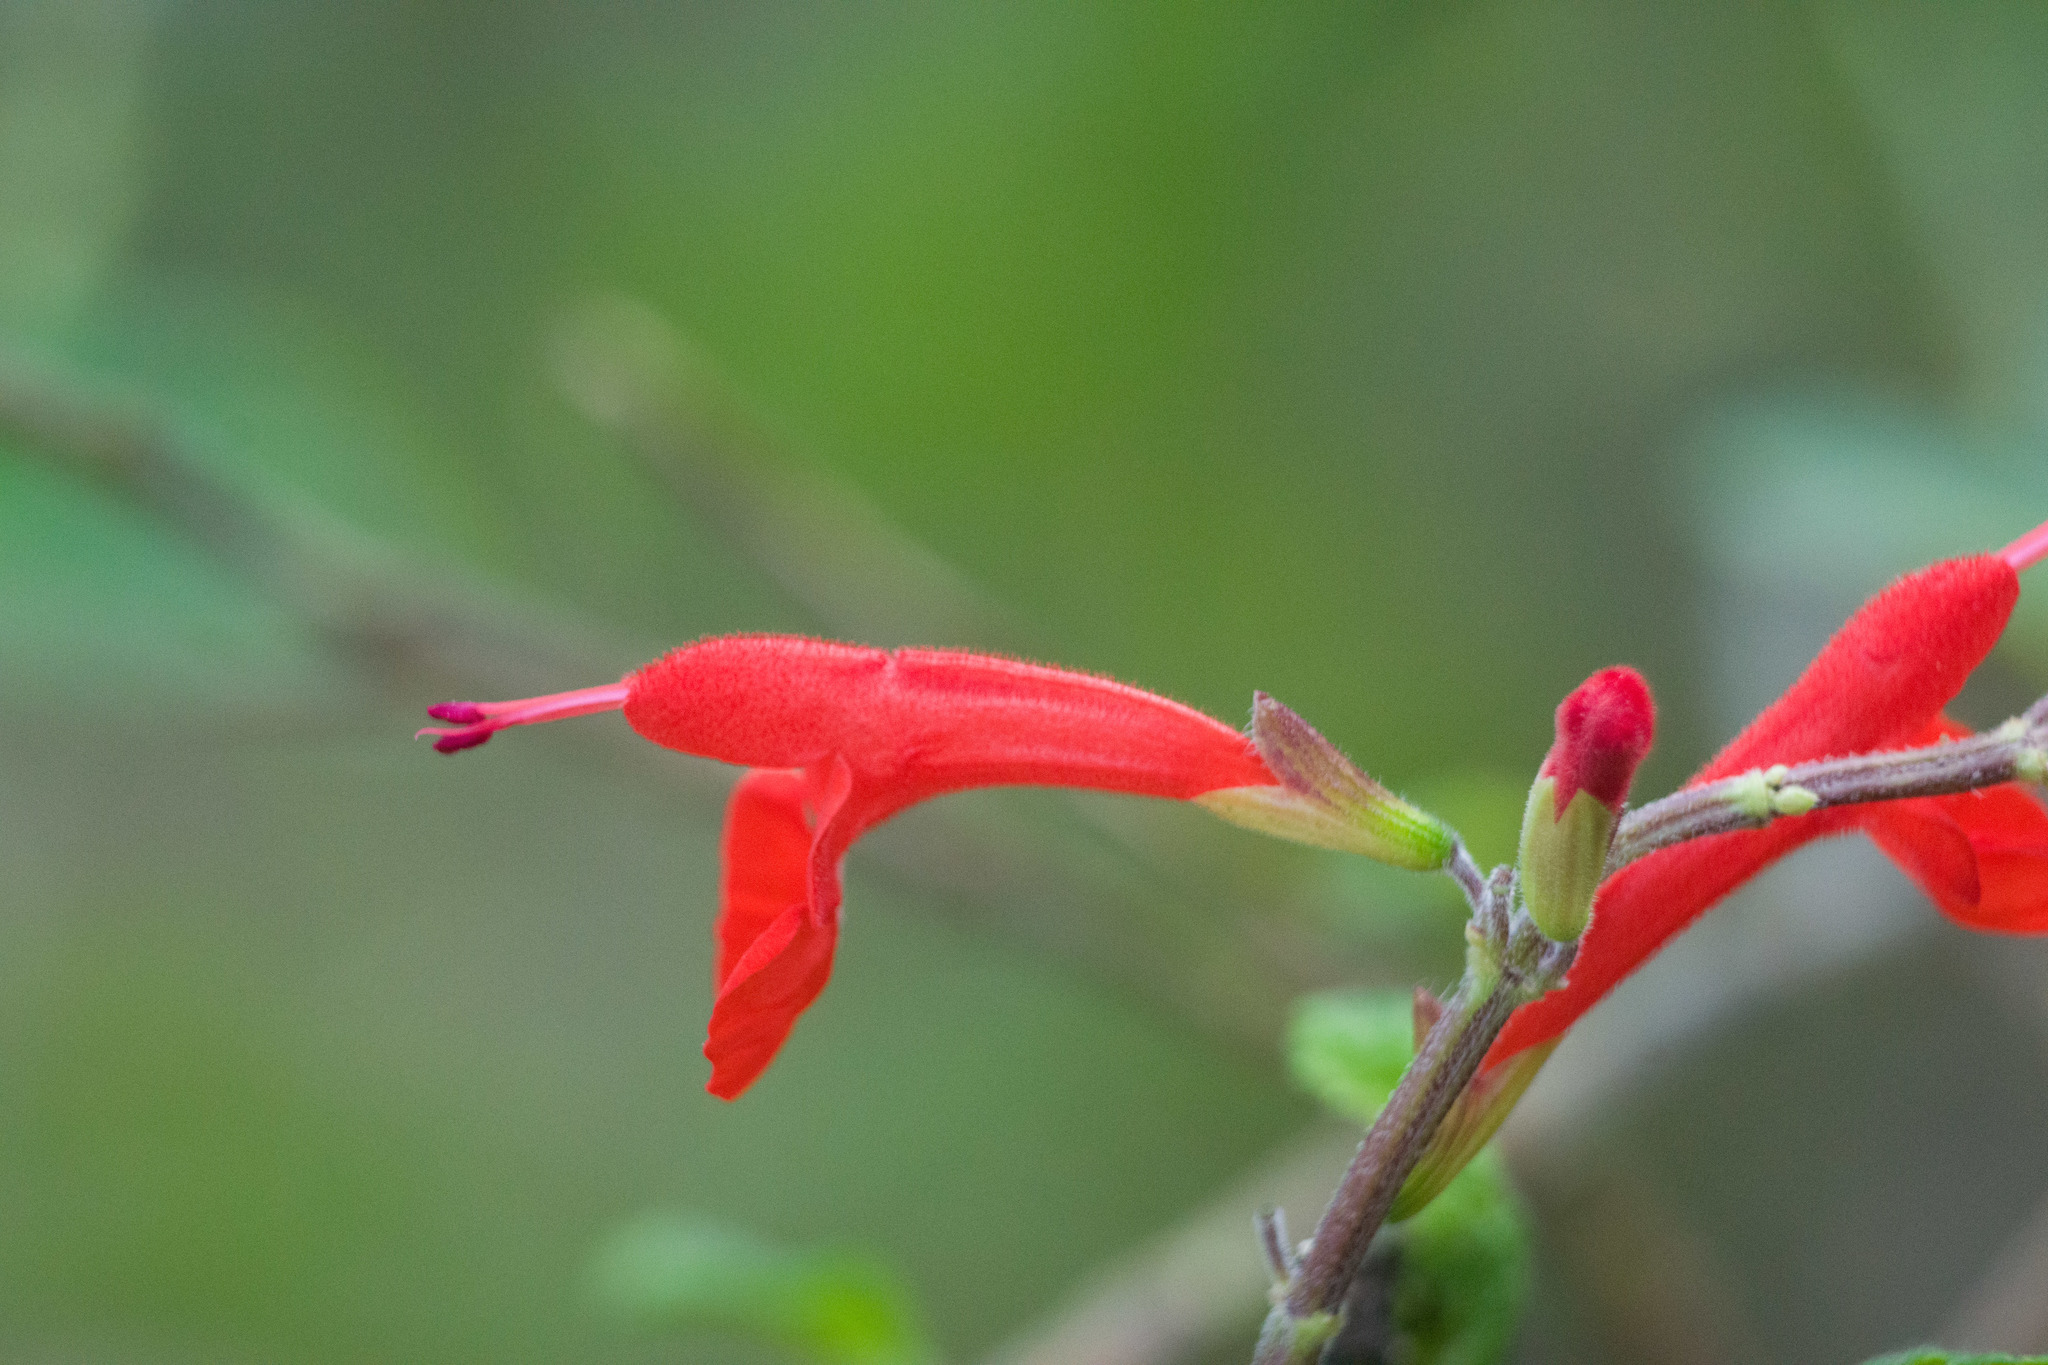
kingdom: Plantae
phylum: Tracheophyta
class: Magnoliopsida
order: Lamiales
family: Lamiaceae
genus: Salvia
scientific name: Salvia coccinea
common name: Blood sage
